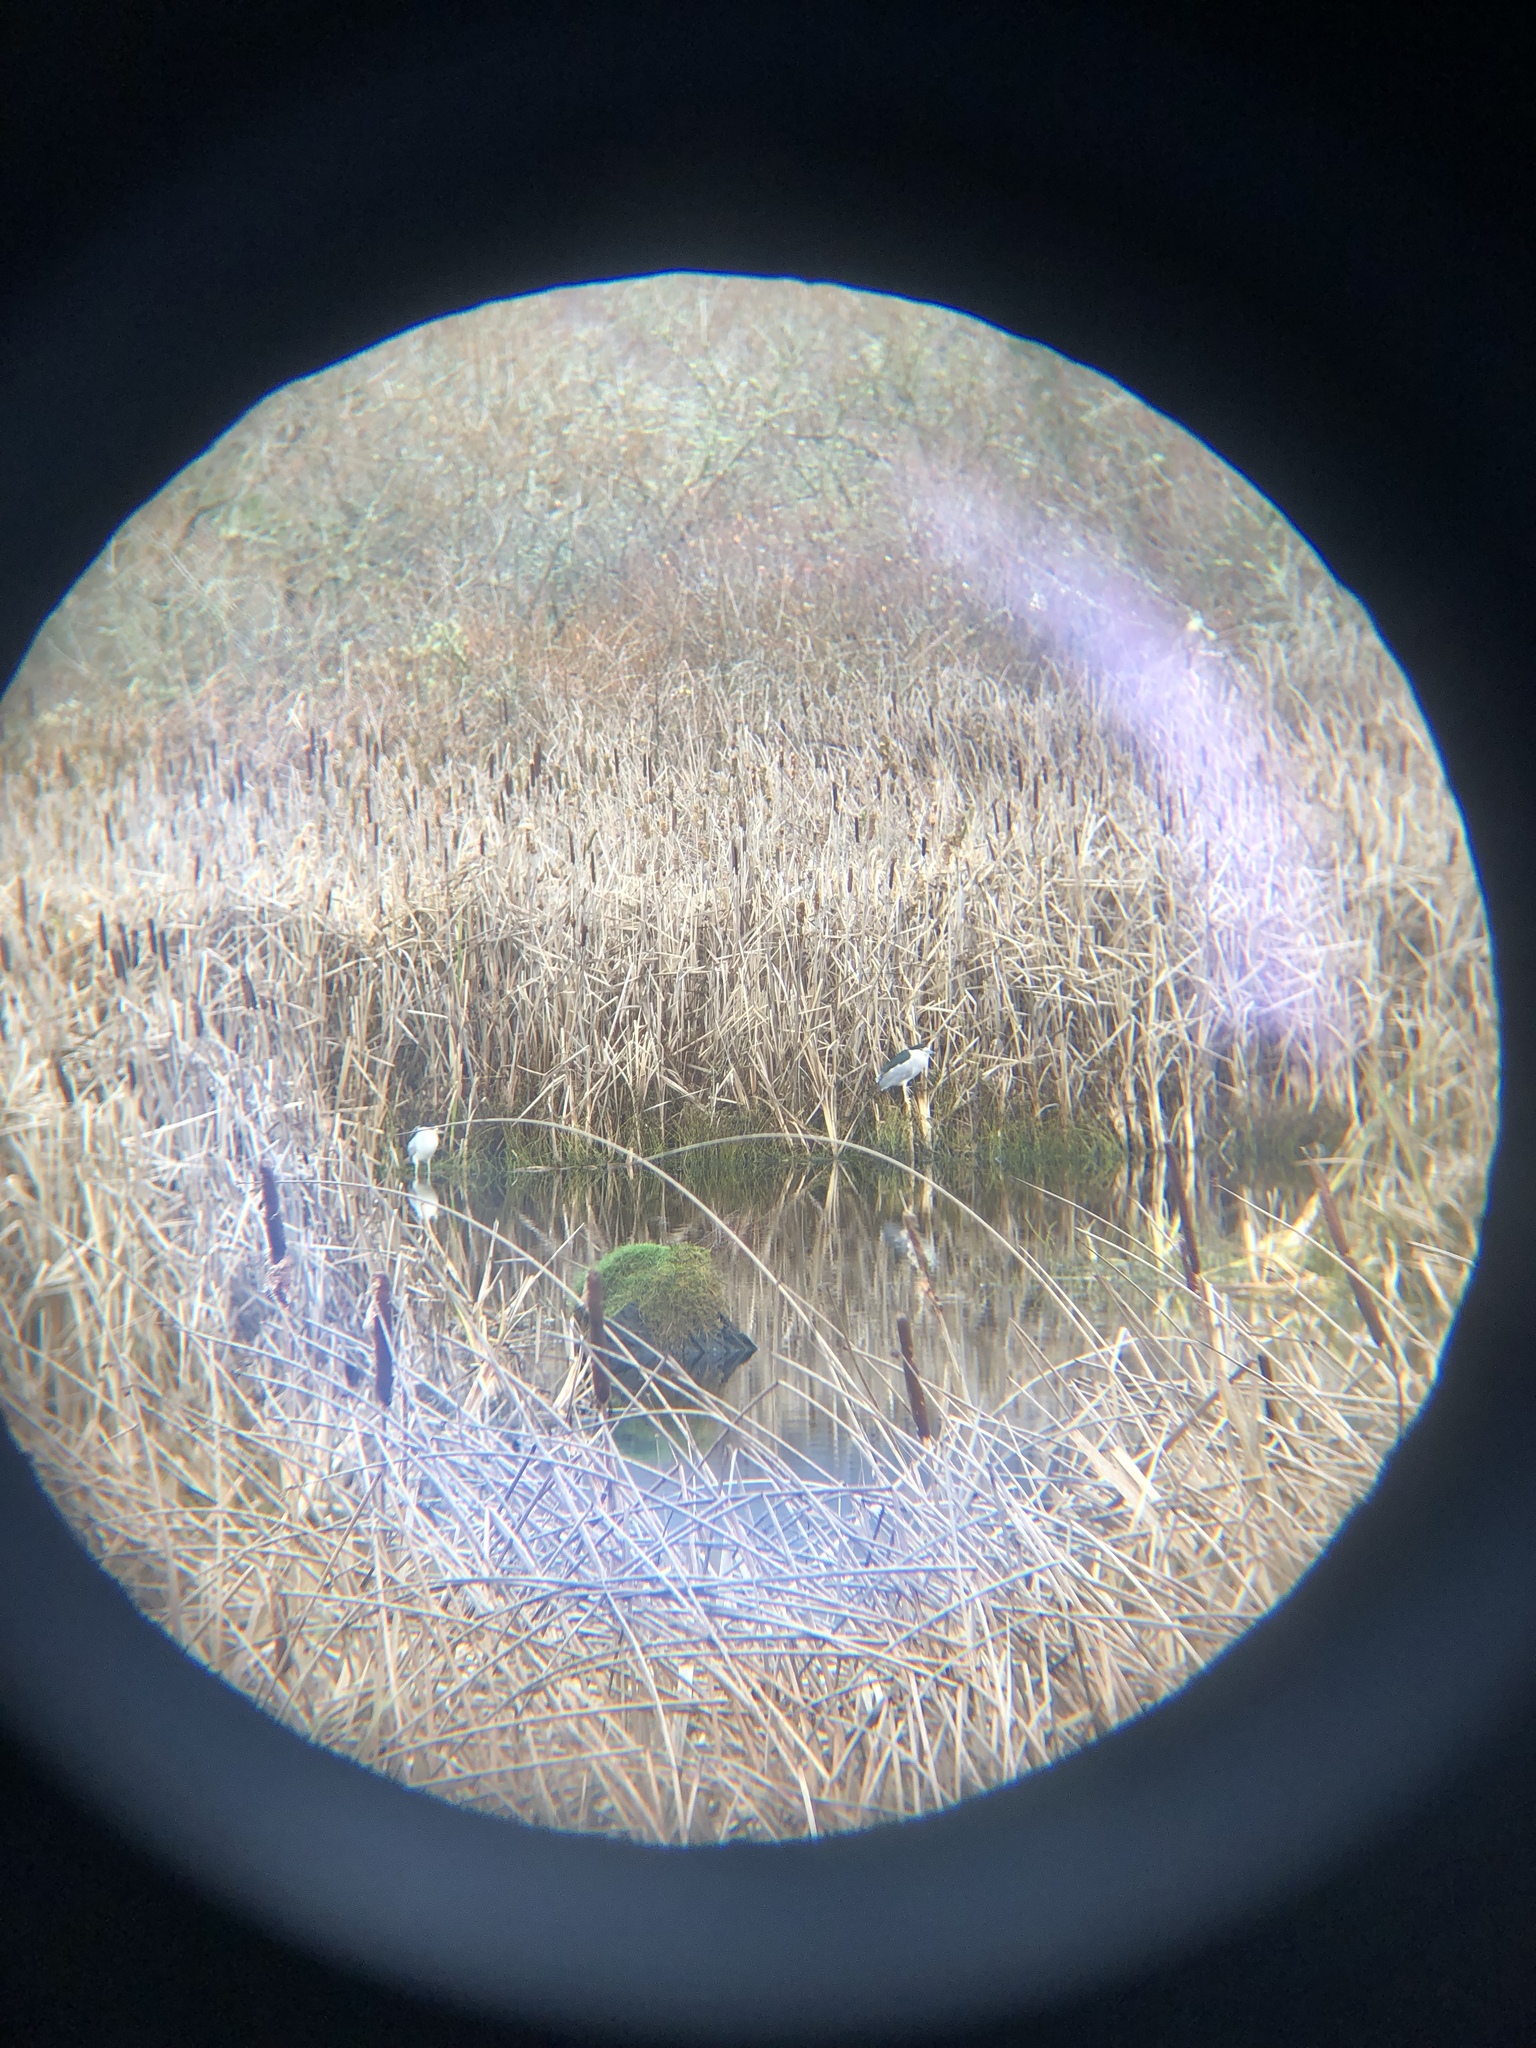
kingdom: Animalia
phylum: Chordata
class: Aves
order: Pelecaniformes
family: Ardeidae
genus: Nycticorax
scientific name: Nycticorax nycticorax
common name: Black-crowned night heron
